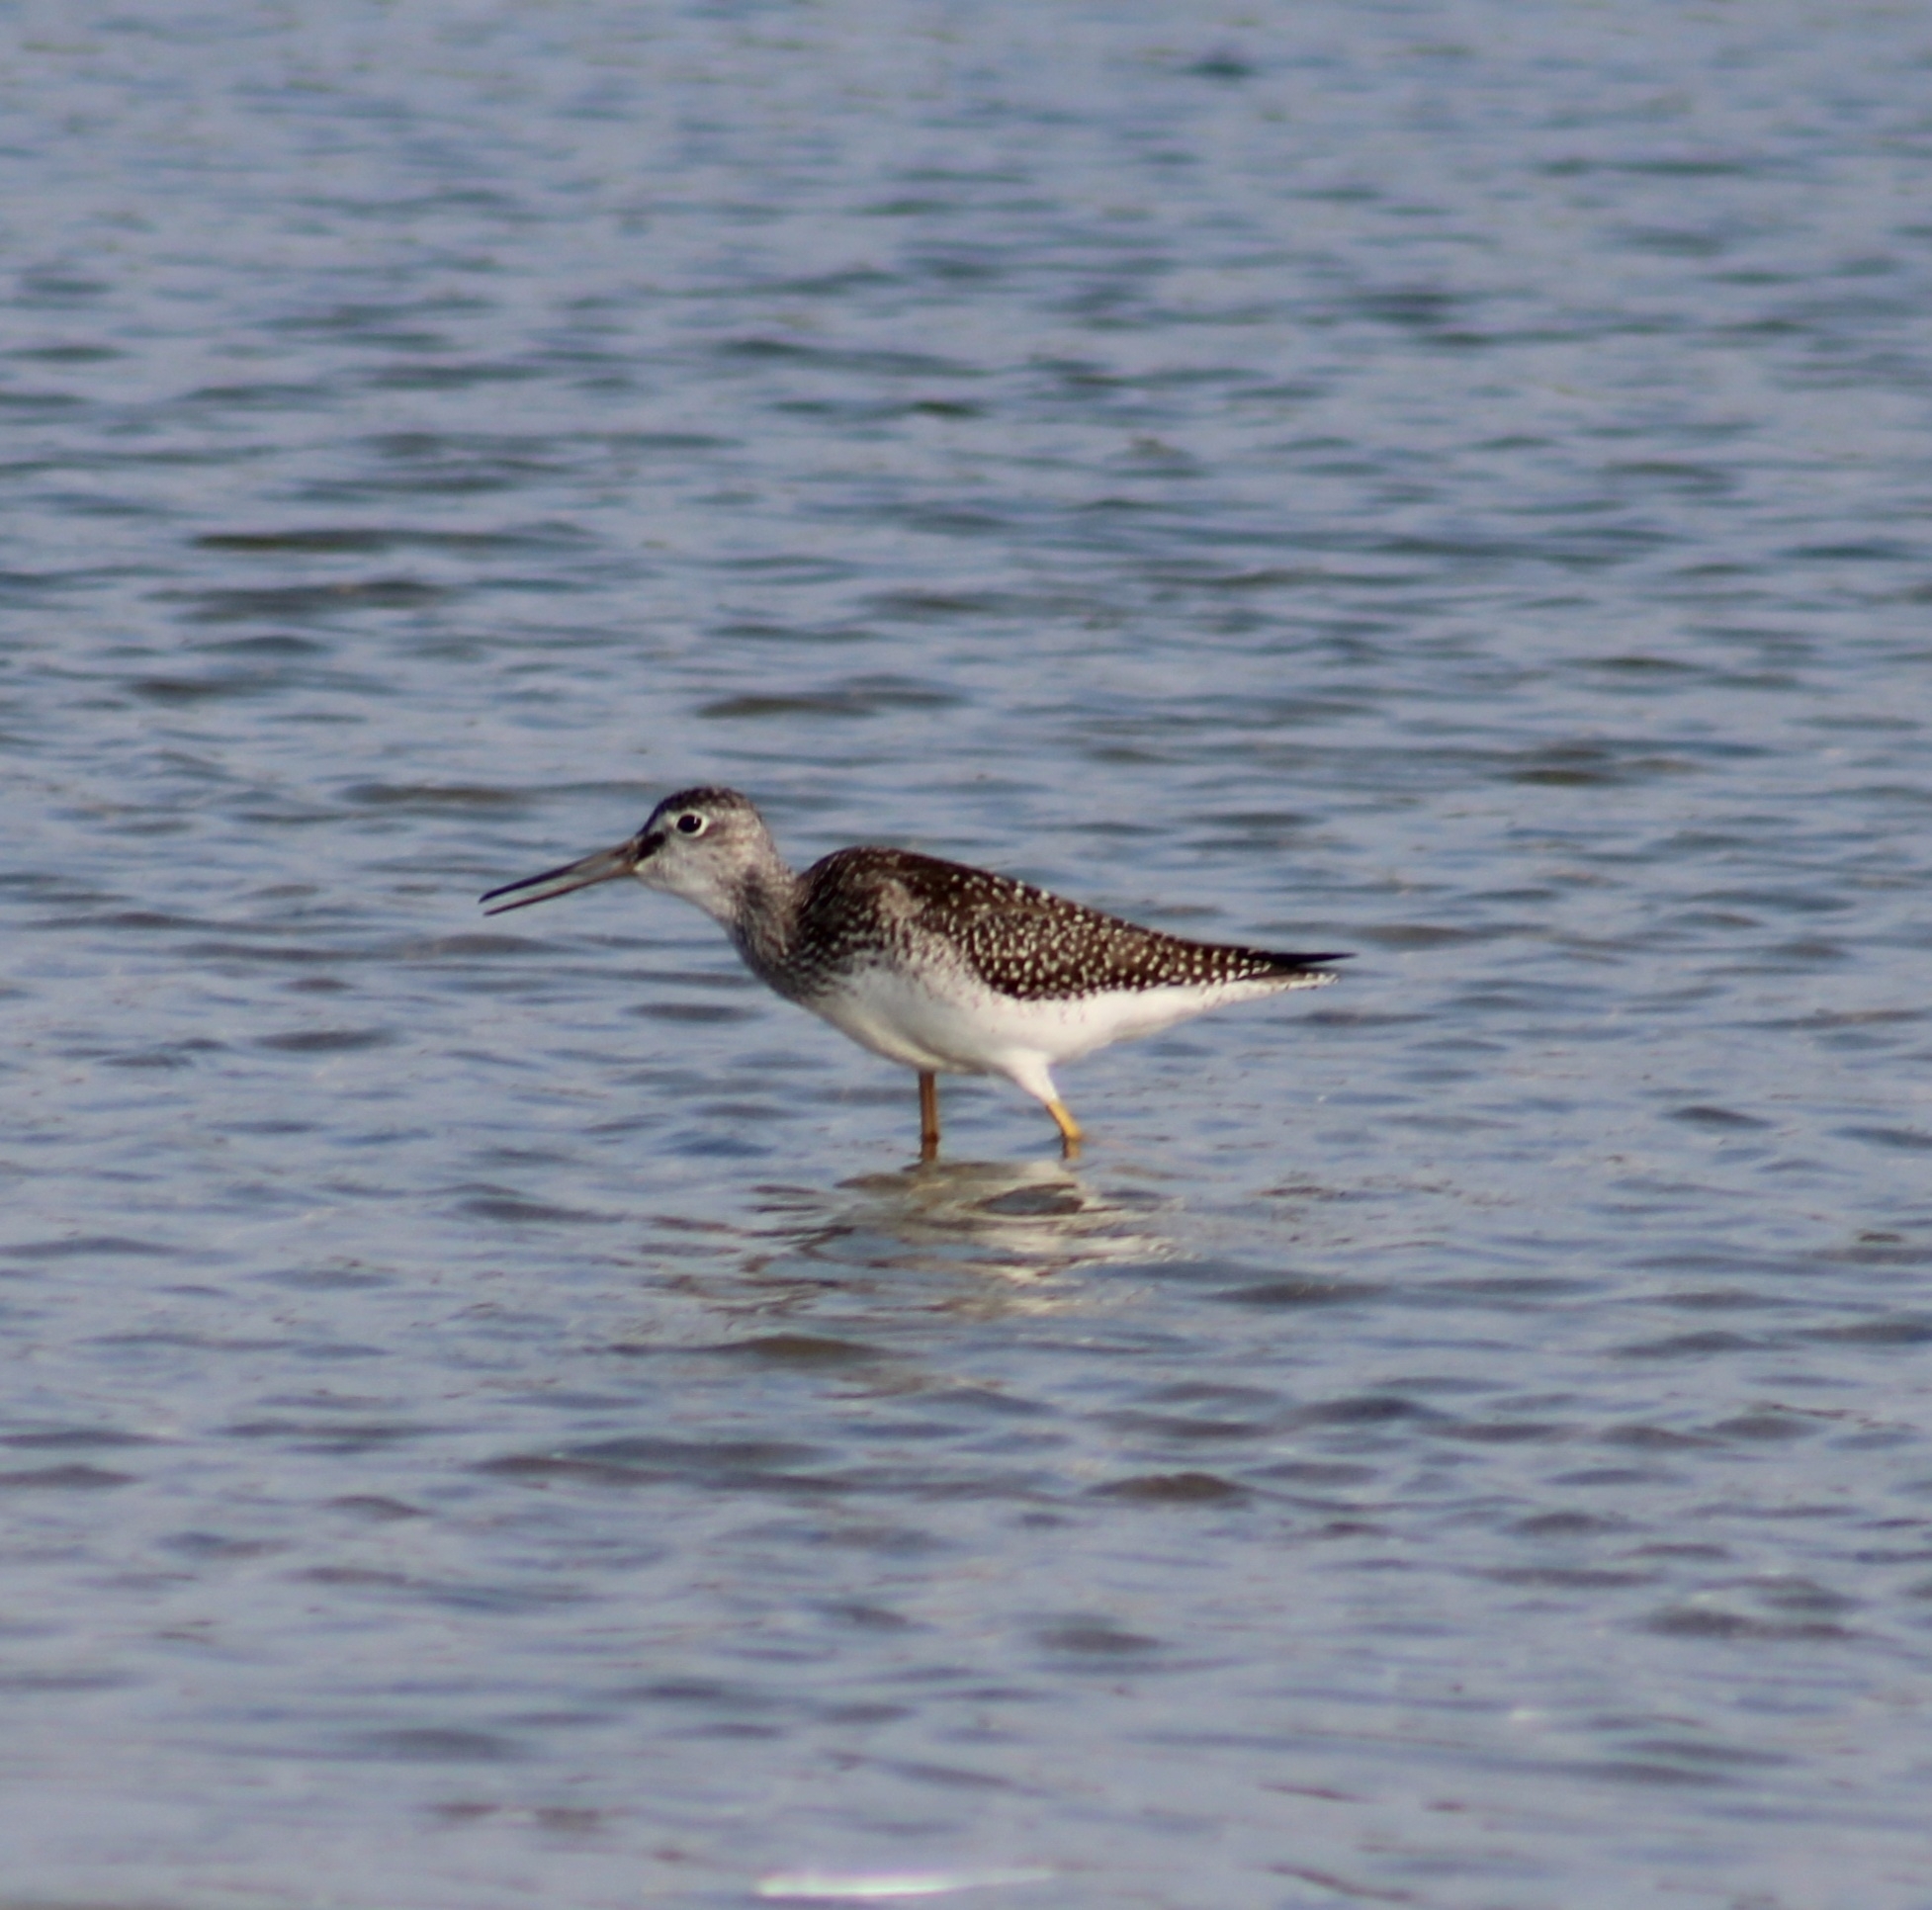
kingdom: Animalia
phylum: Chordata
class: Aves
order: Charadriiformes
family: Scolopacidae
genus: Tringa
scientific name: Tringa melanoleuca
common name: Greater yellowlegs
